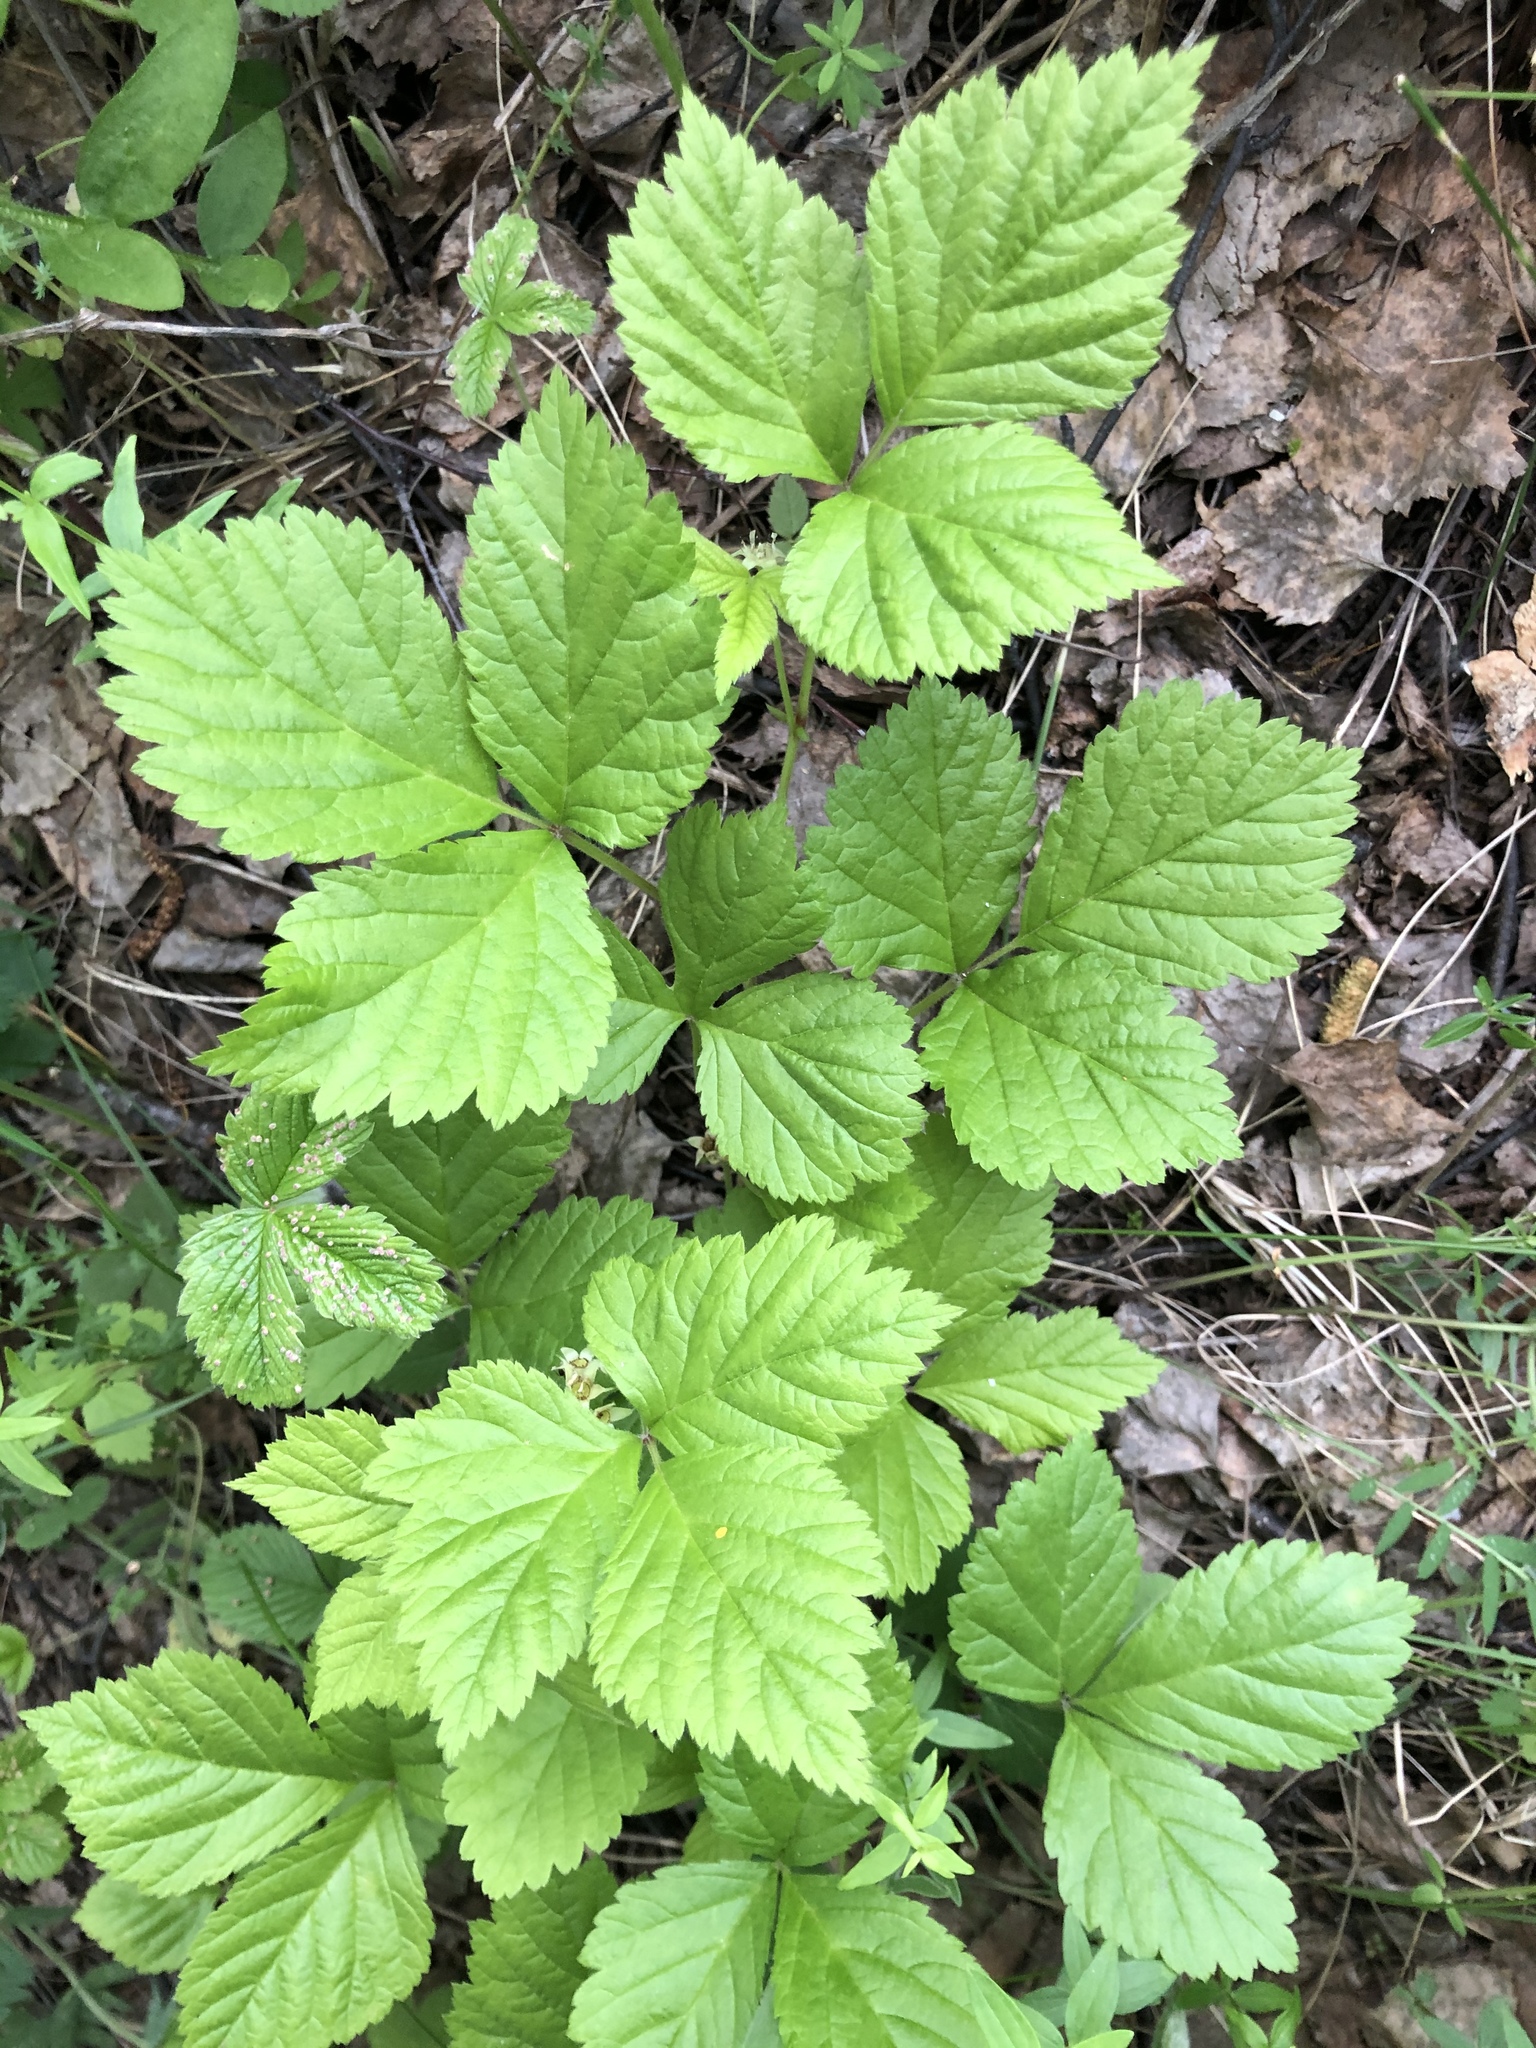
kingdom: Plantae
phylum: Tracheophyta
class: Magnoliopsida
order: Rosales
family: Rosaceae
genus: Rubus
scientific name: Rubus saxatilis
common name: Stone bramble
